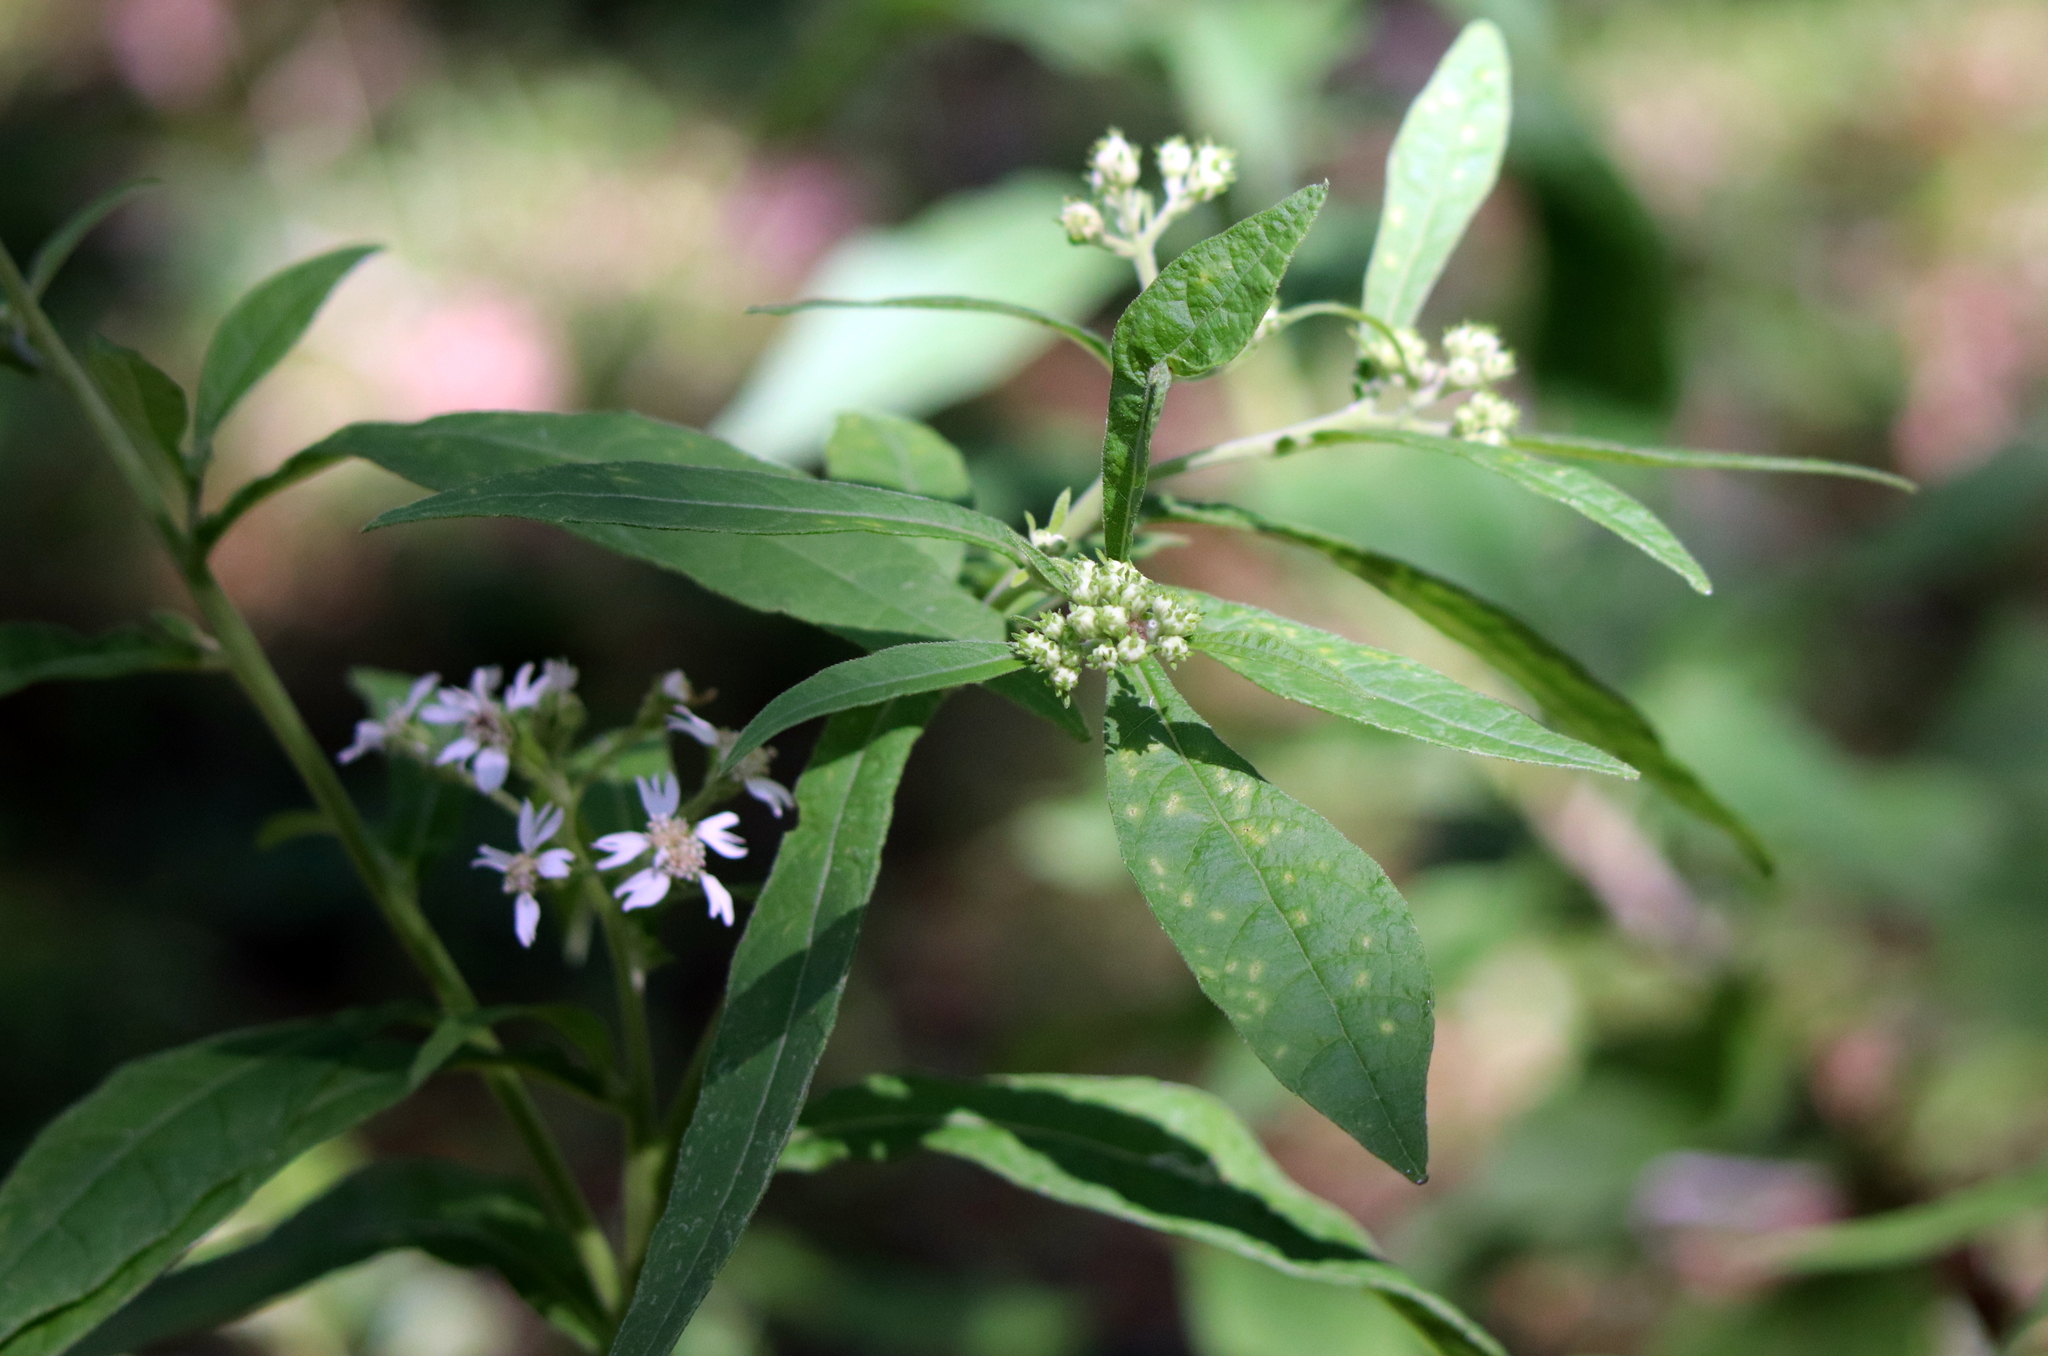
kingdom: Plantae
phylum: Tracheophyta
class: Magnoliopsida
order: Asterales
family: Asteraceae
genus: Verbesina
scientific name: Verbesina virginica
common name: Frostweed
